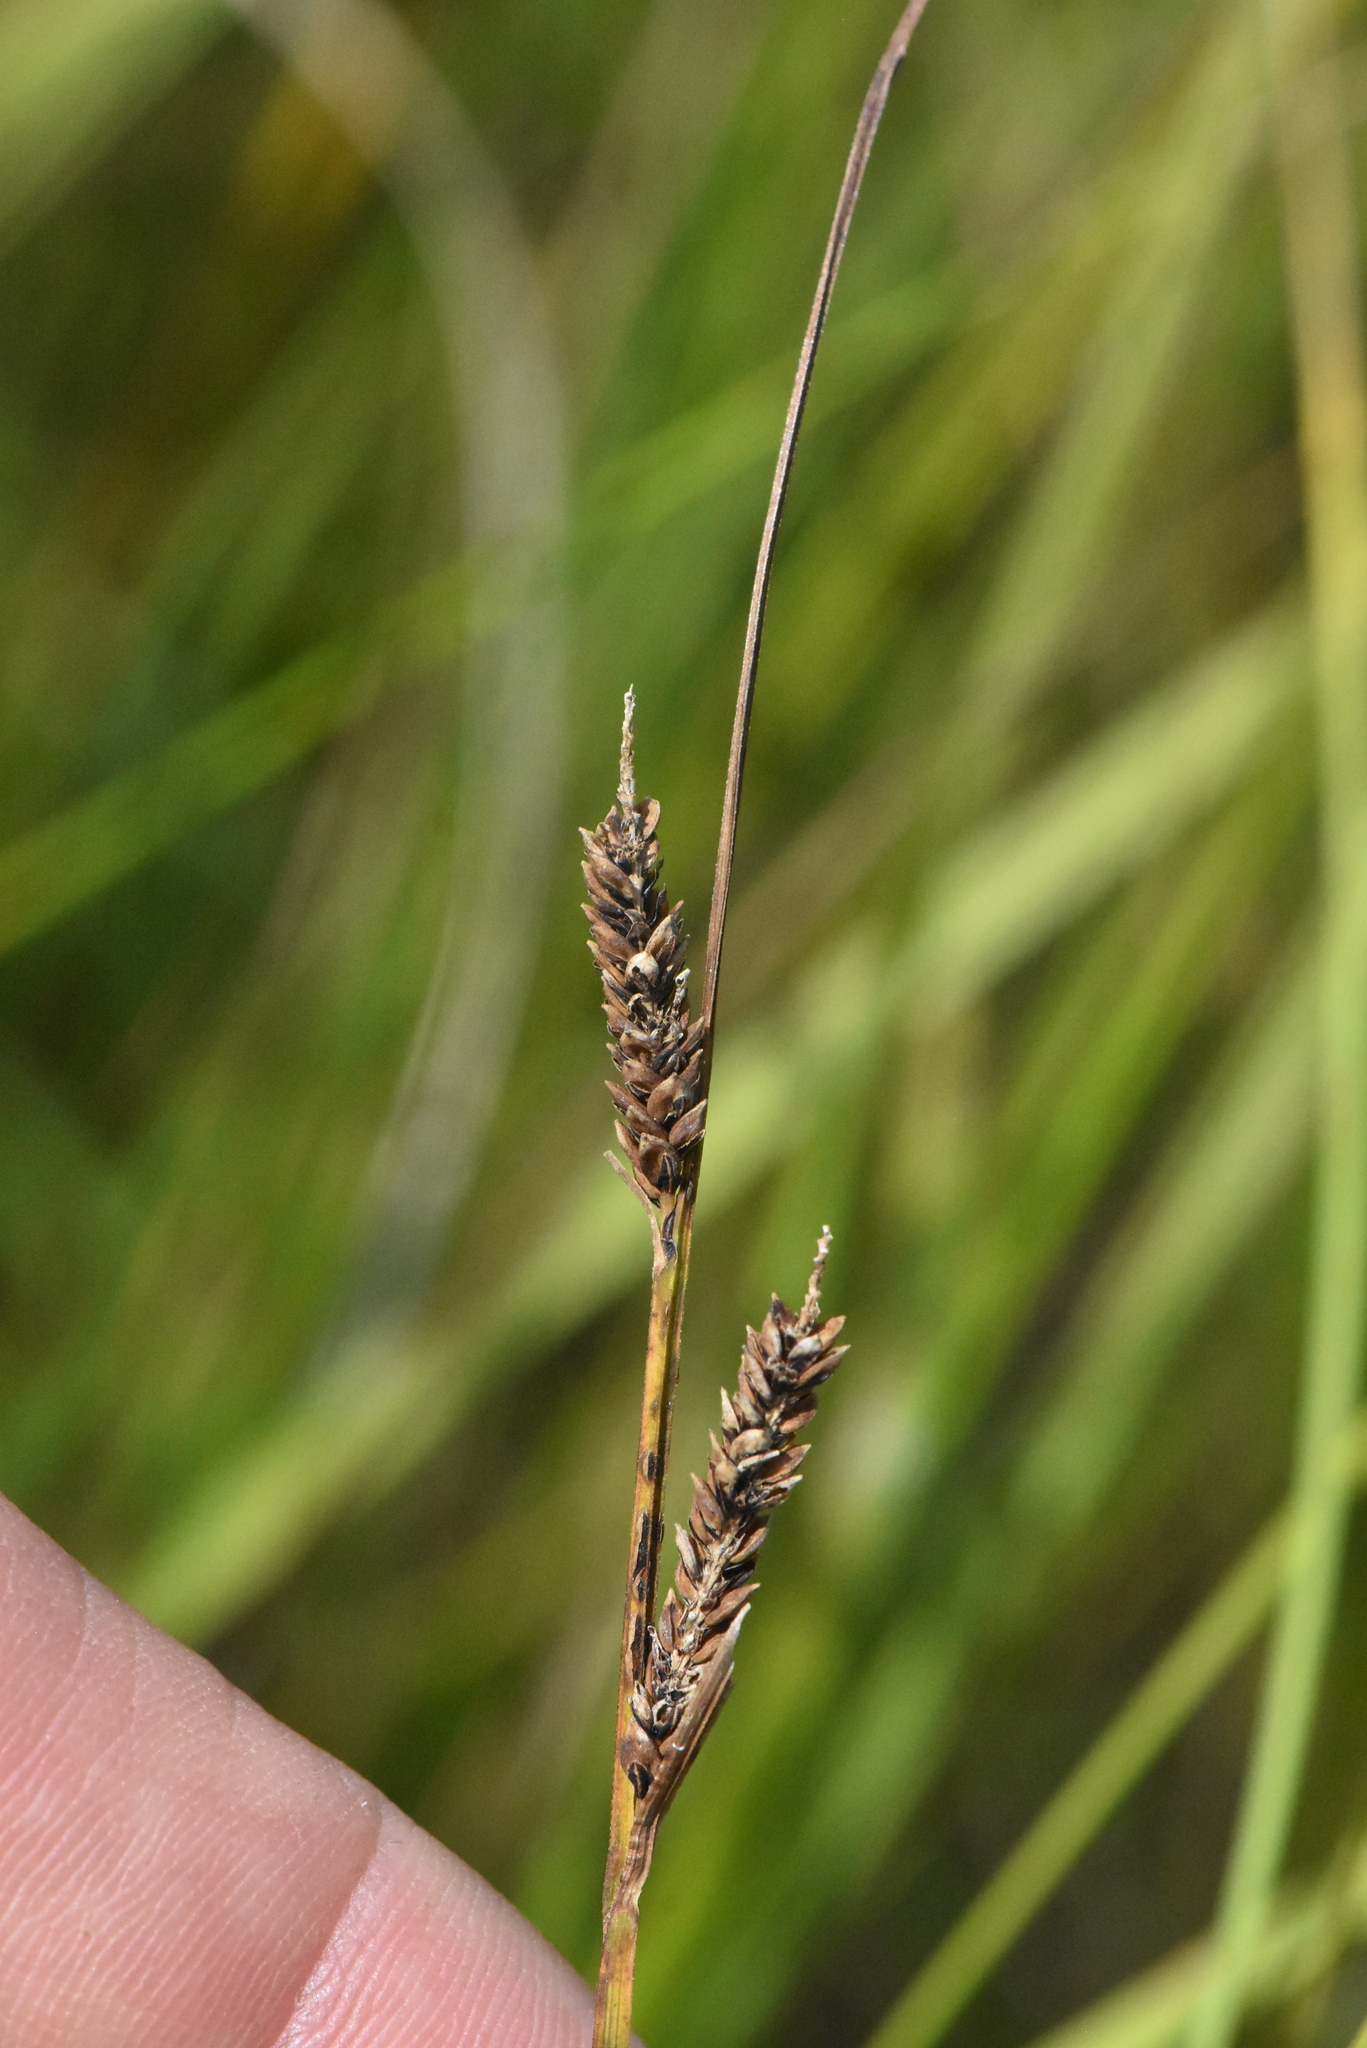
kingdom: Plantae
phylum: Tracheophyta
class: Liliopsida
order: Poales
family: Cyperaceae
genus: Carex
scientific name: Carex nigra
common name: Common sedge
